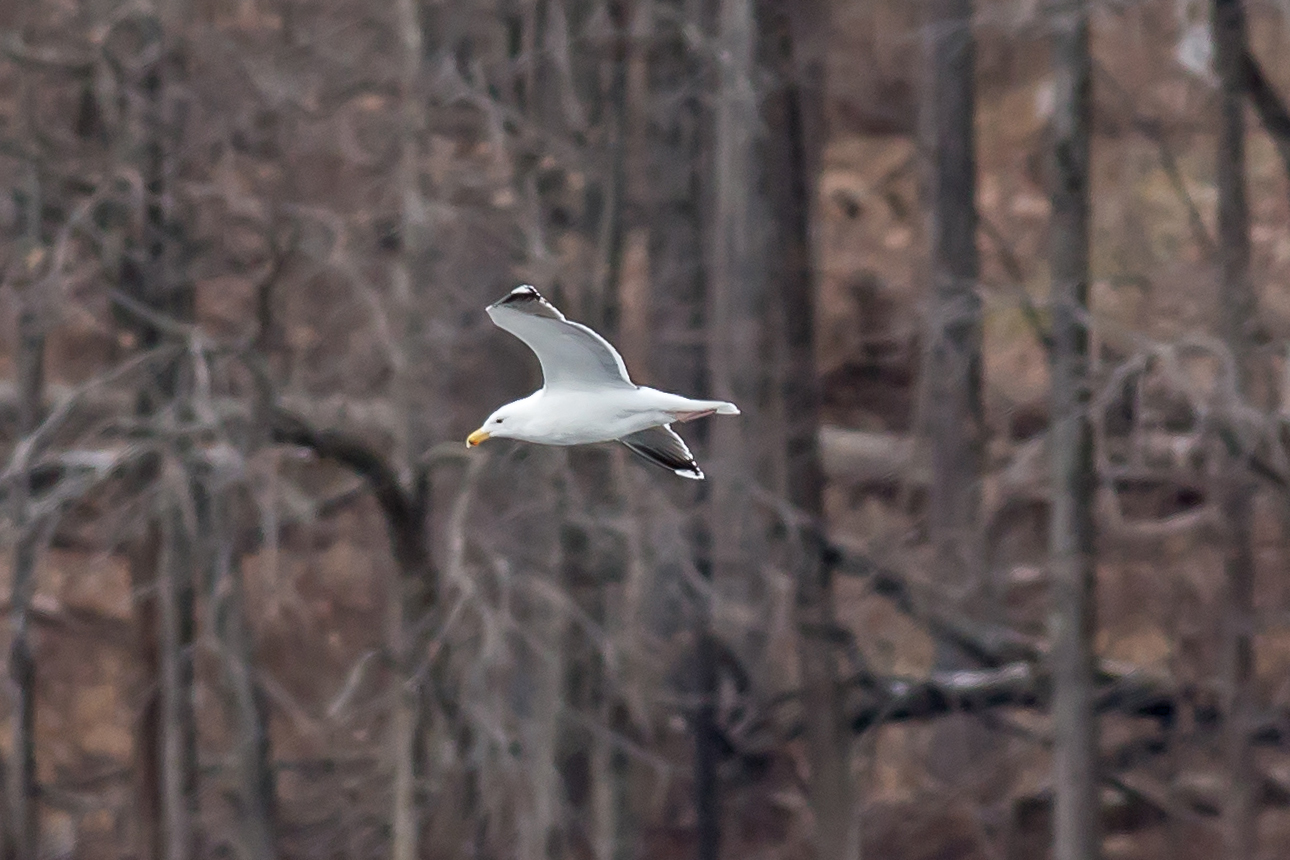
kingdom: Animalia
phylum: Chordata
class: Aves
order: Charadriiformes
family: Laridae
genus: Larus
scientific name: Larus marinus
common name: Great black-backed gull
